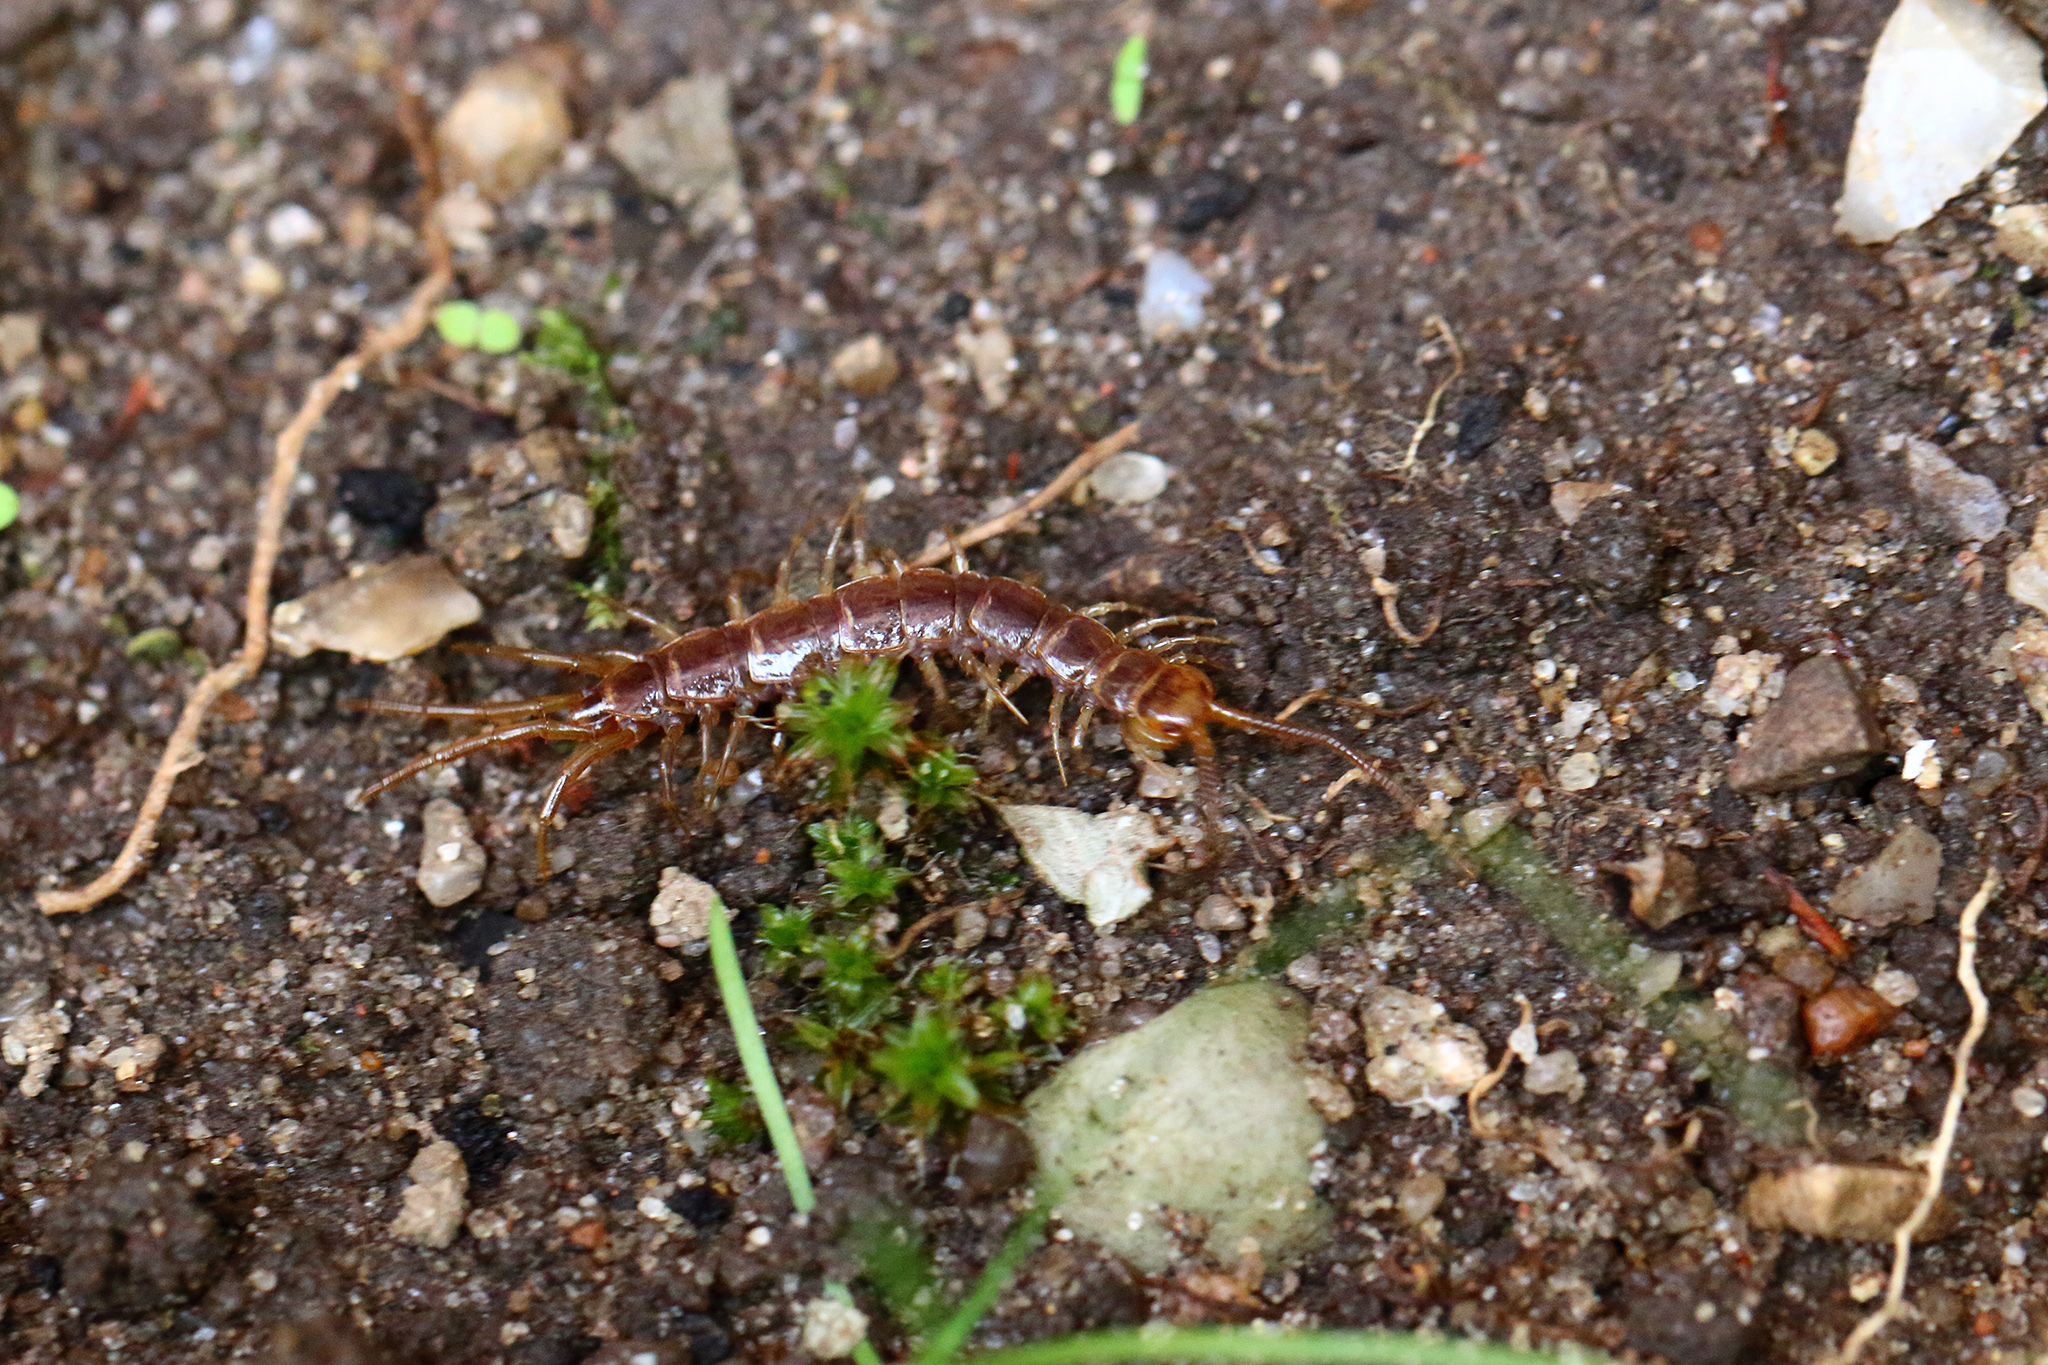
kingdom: Animalia
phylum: Arthropoda
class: Chilopoda
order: Lithobiomorpha
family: Lithobiidae
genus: Lithobius
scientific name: Lithobius forficatus
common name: Centipede
